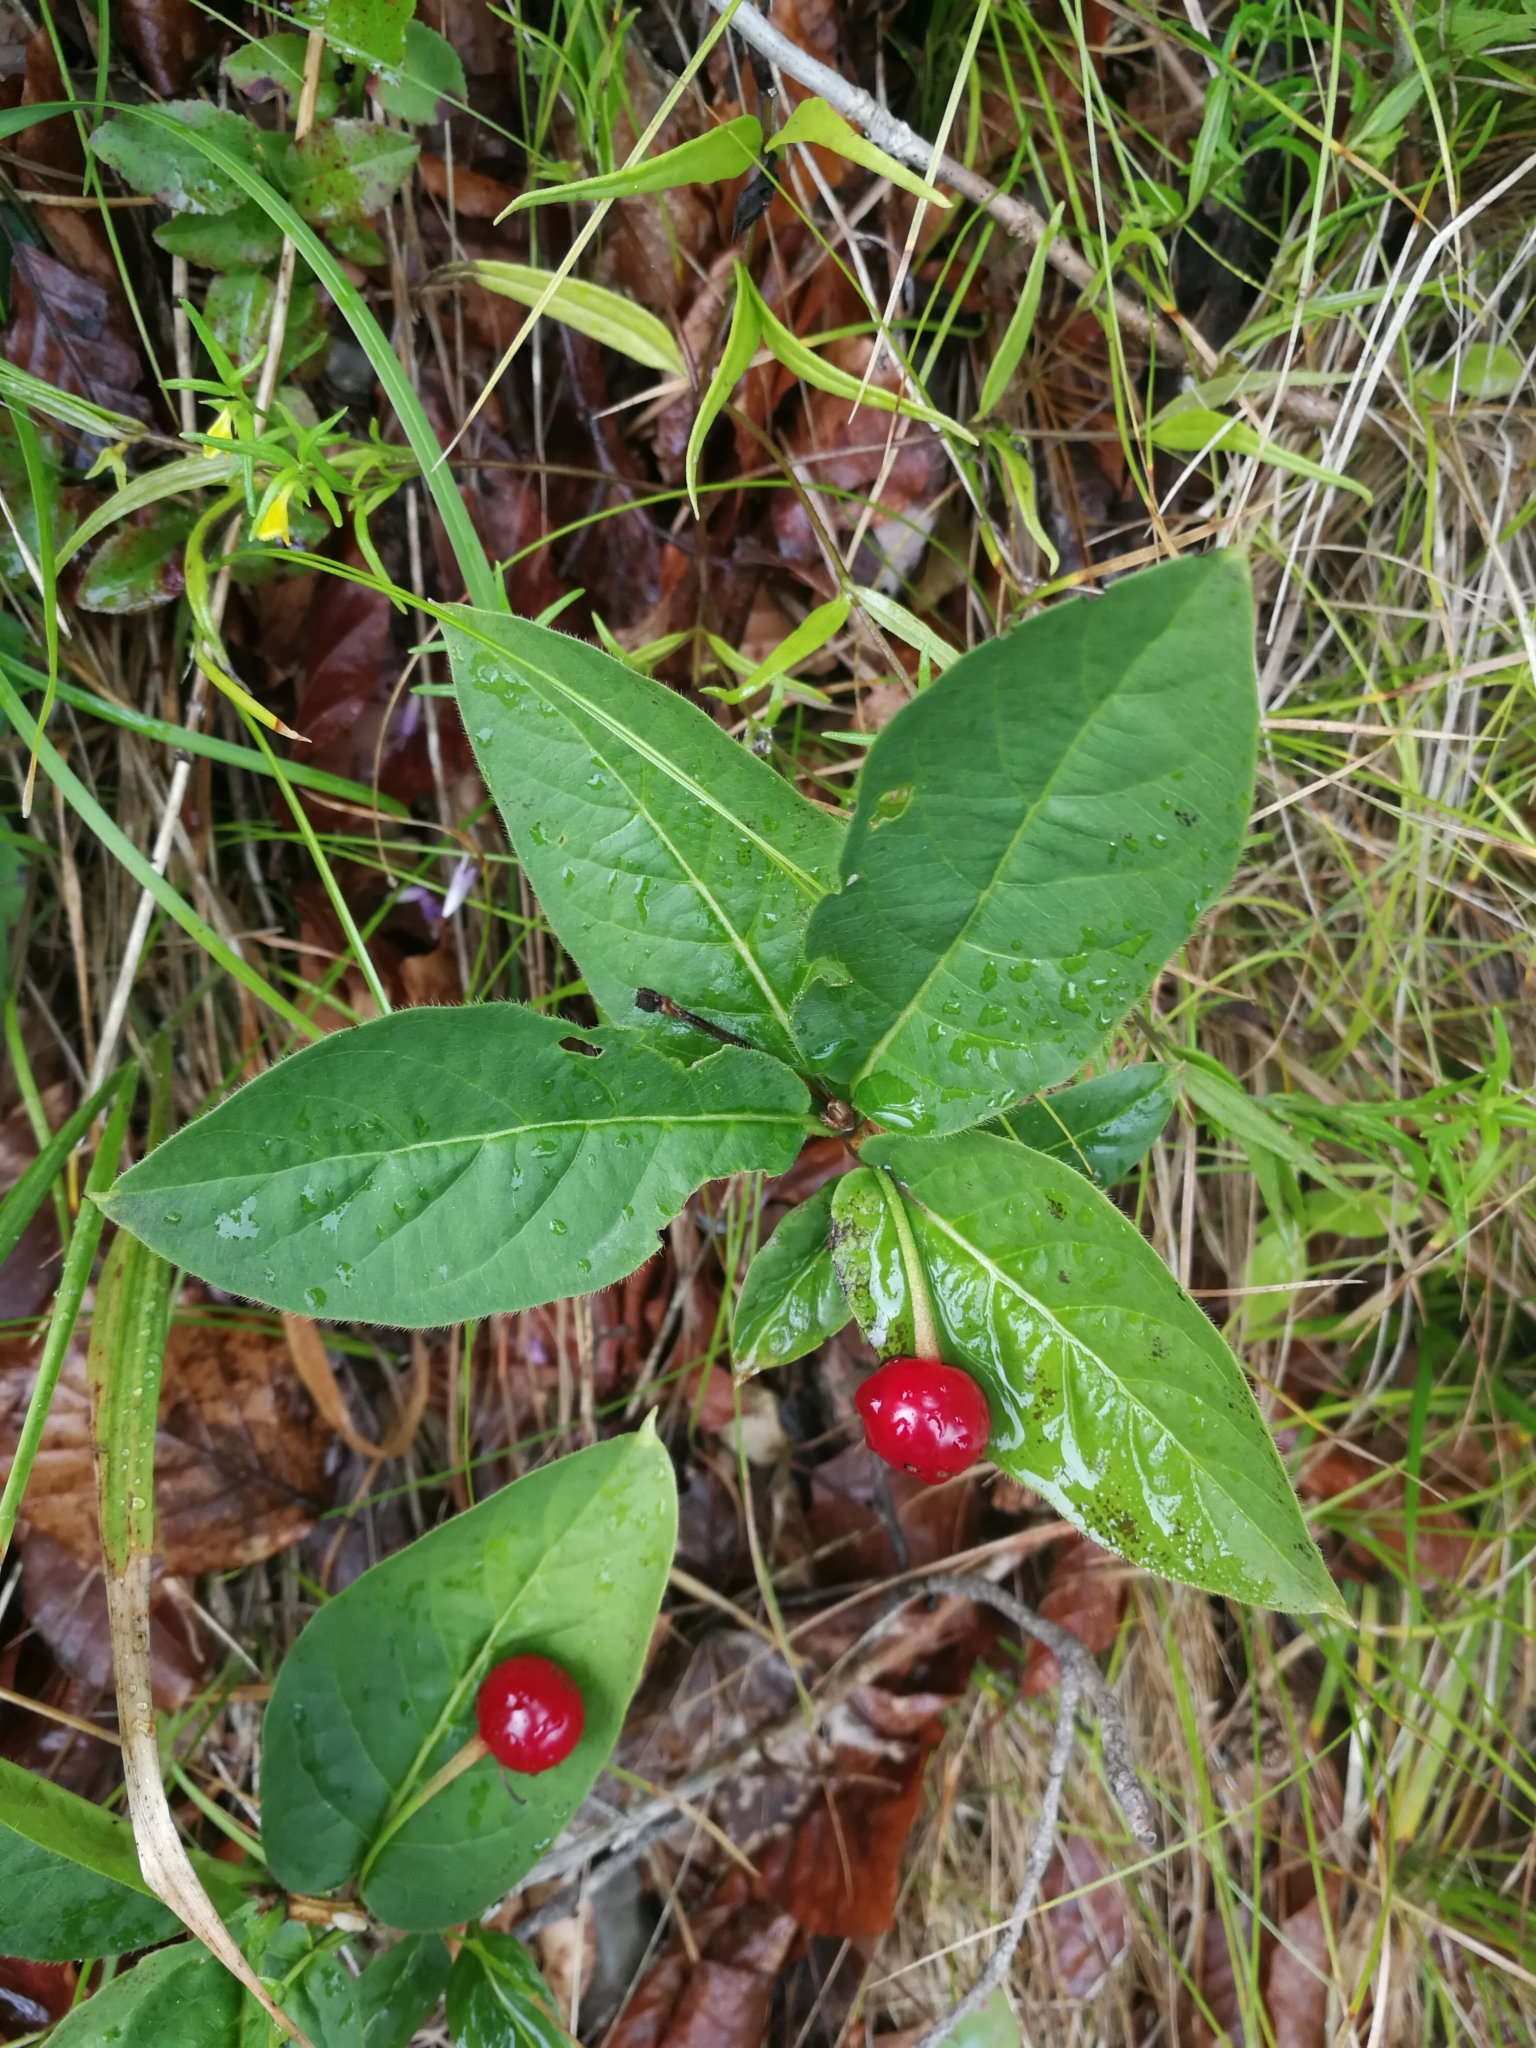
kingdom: Plantae
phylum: Tracheophyta
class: Magnoliopsida
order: Dipsacales
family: Caprifoliaceae
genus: Lonicera
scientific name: Lonicera alpigena
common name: Alpine honeysuckle
